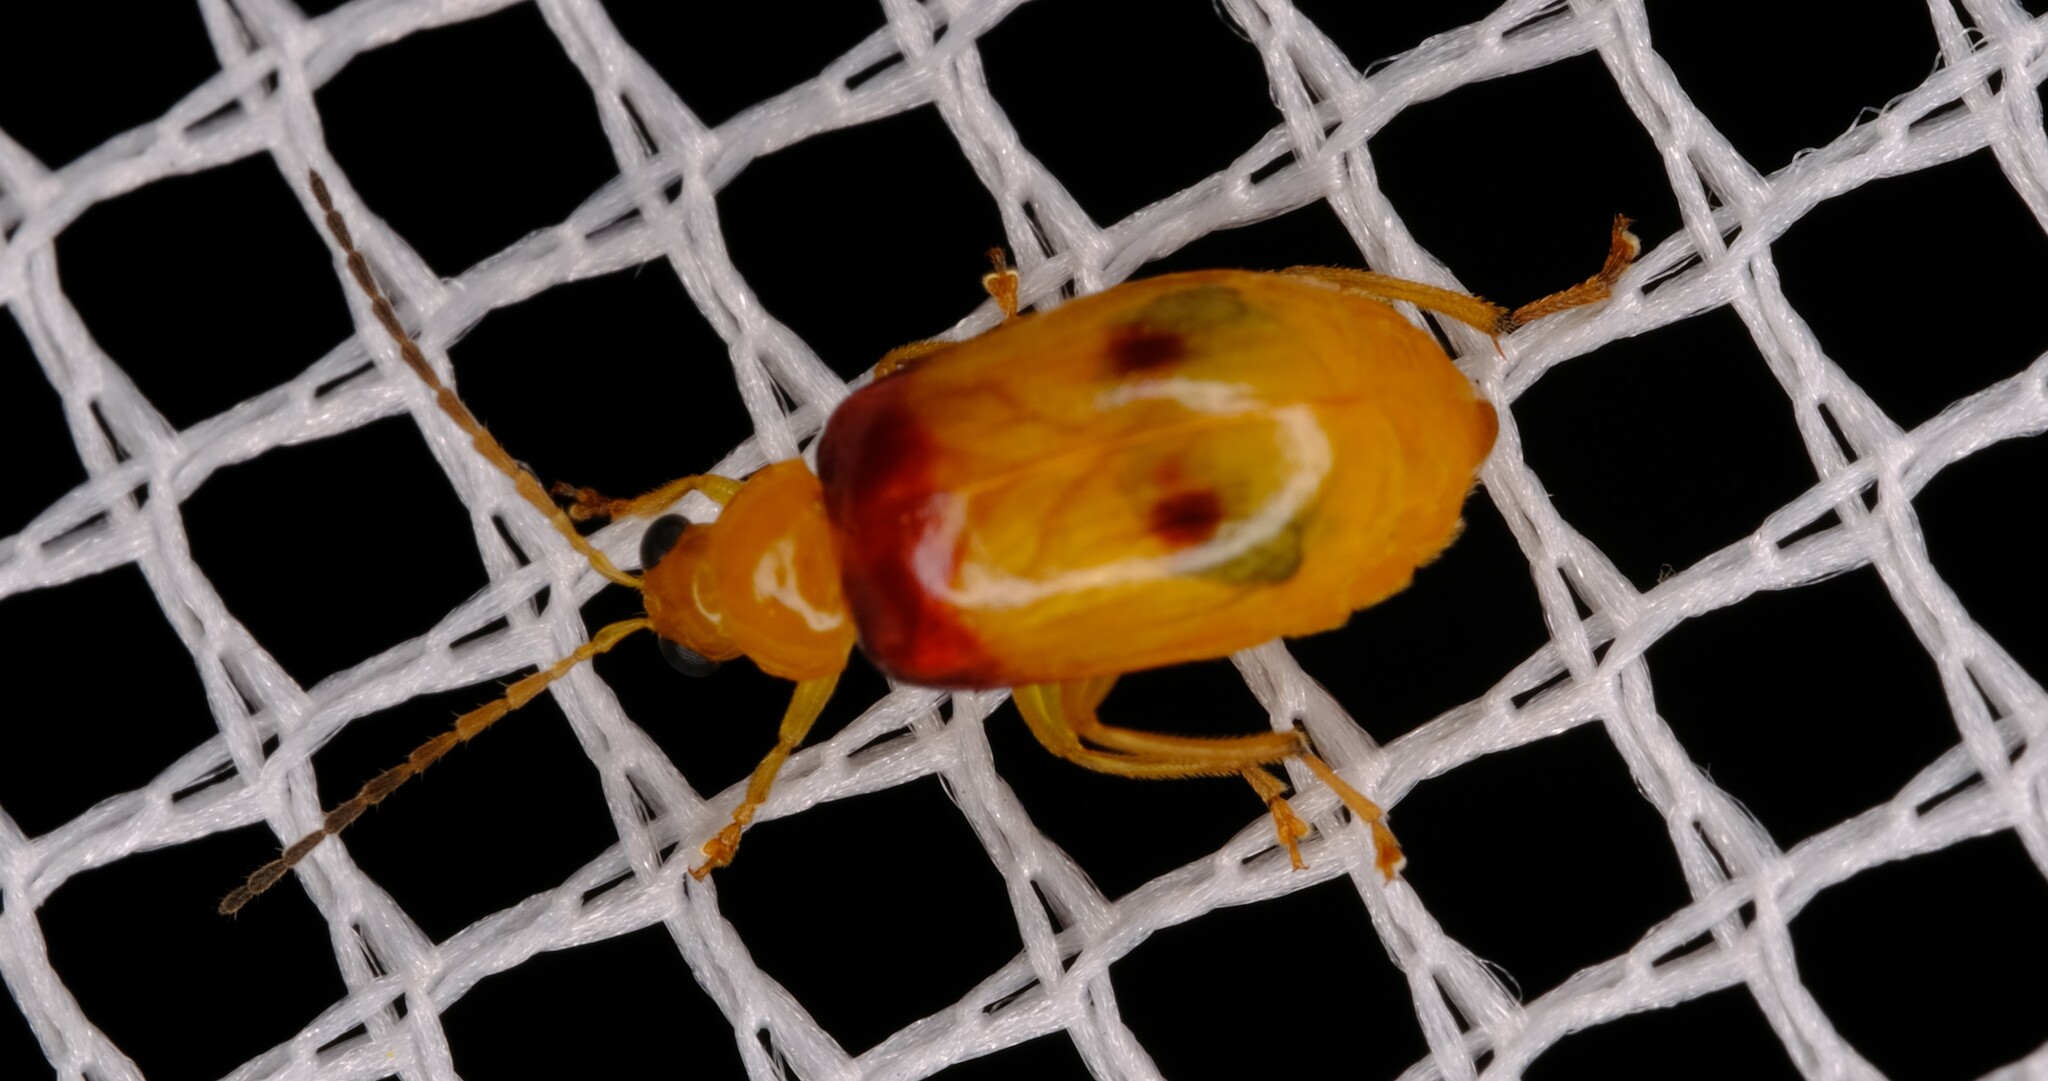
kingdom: Animalia
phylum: Arthropoda
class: Insecta
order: Coleoptera
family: Chrysomelidae
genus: Monolepta
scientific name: Monolepta
